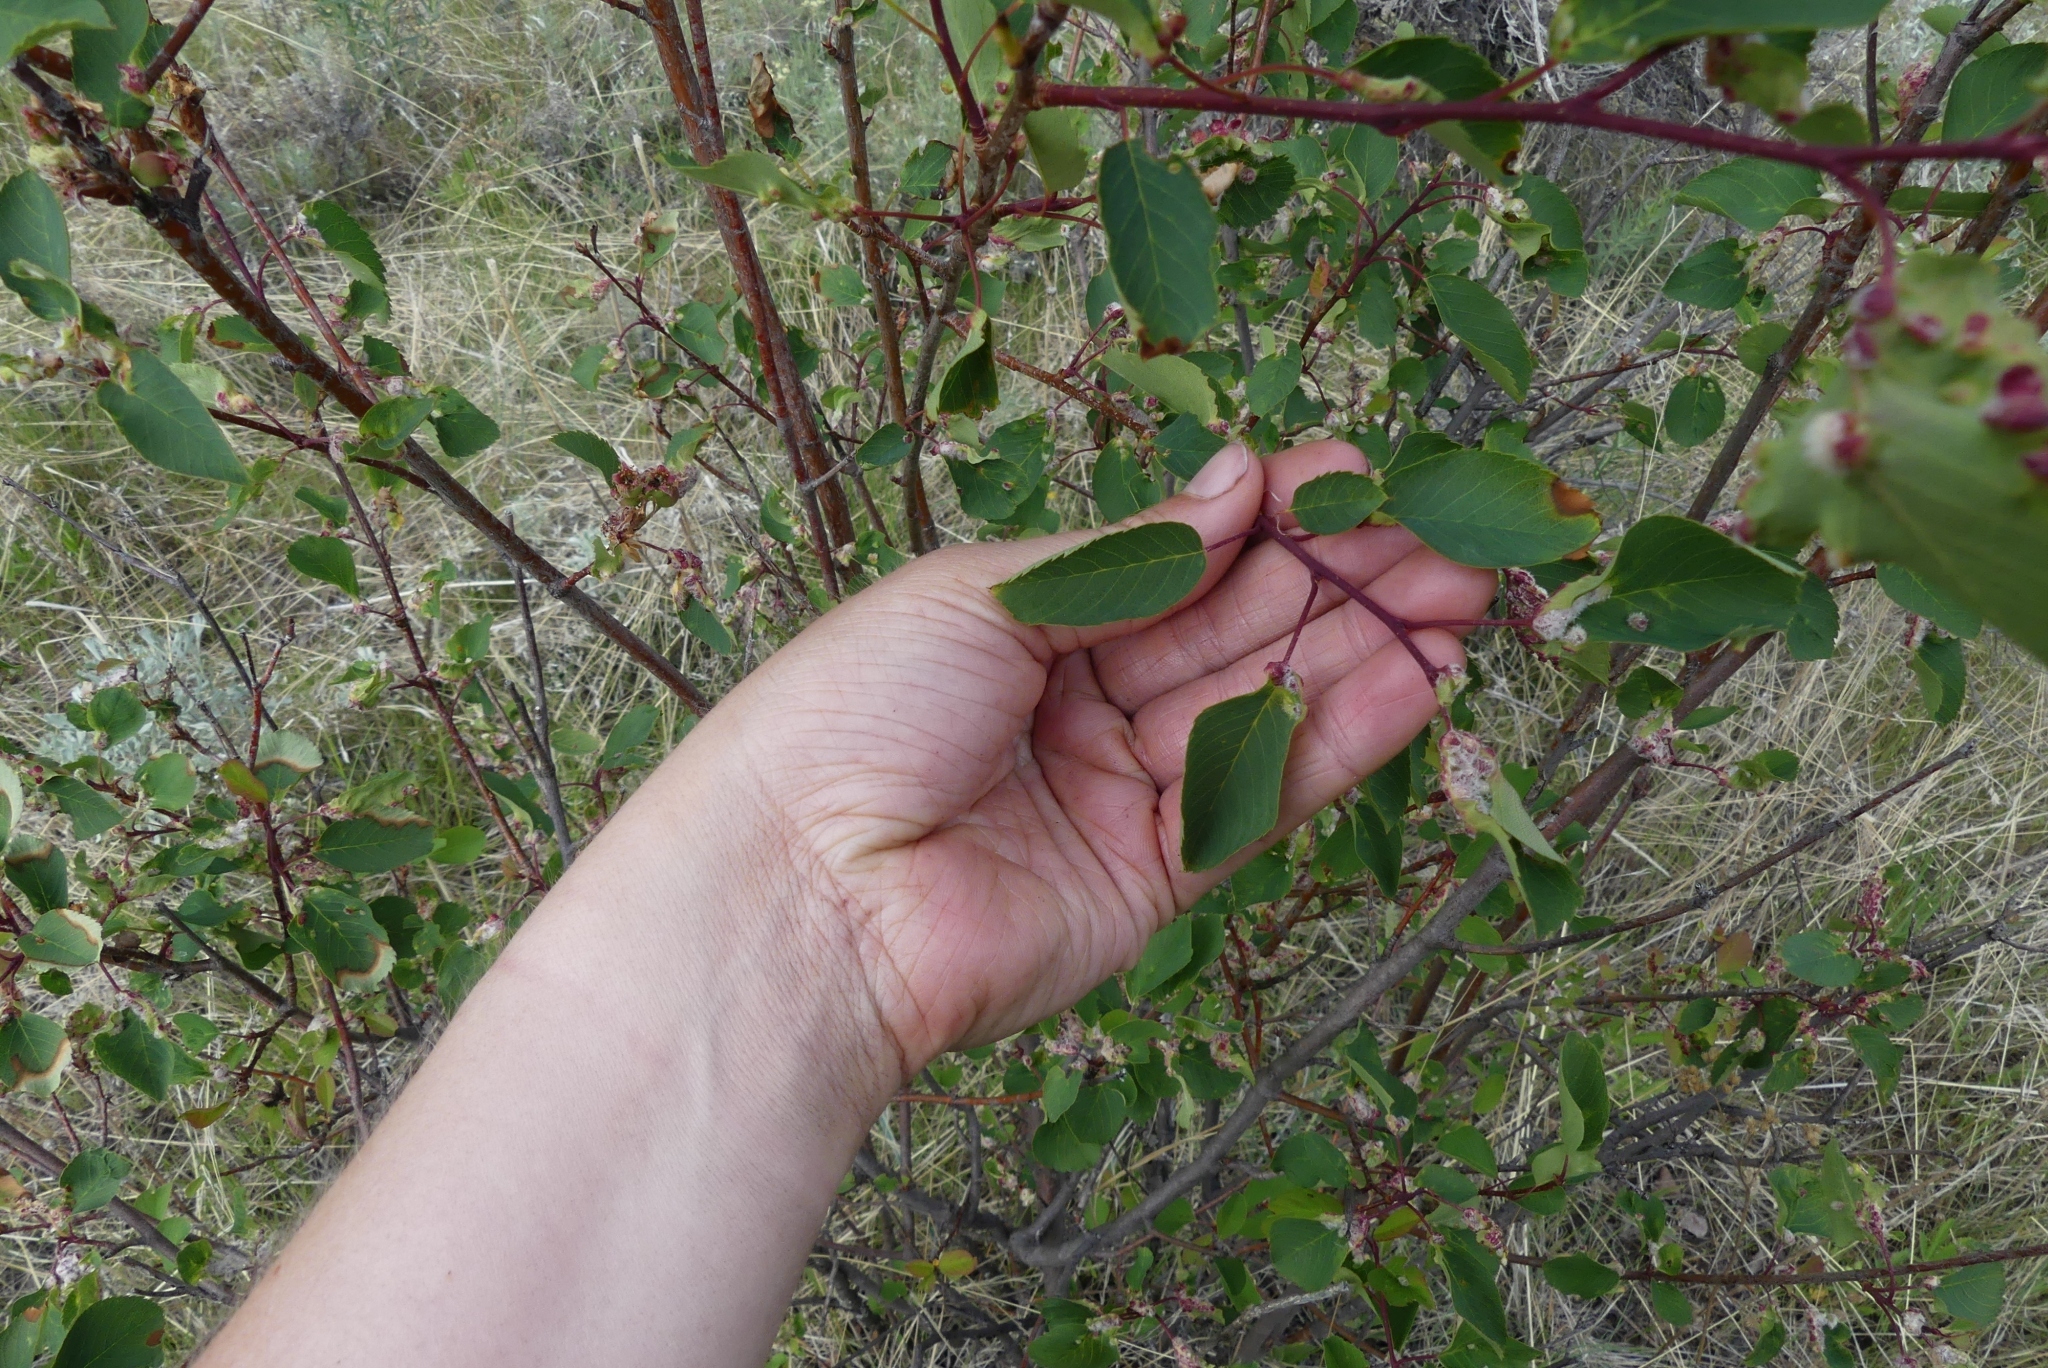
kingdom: Plantae
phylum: Tracheophyta
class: Magnoliopsida
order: Rosales
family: Rosaceae
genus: Amelanchier
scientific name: Amelanchier alnifolia
